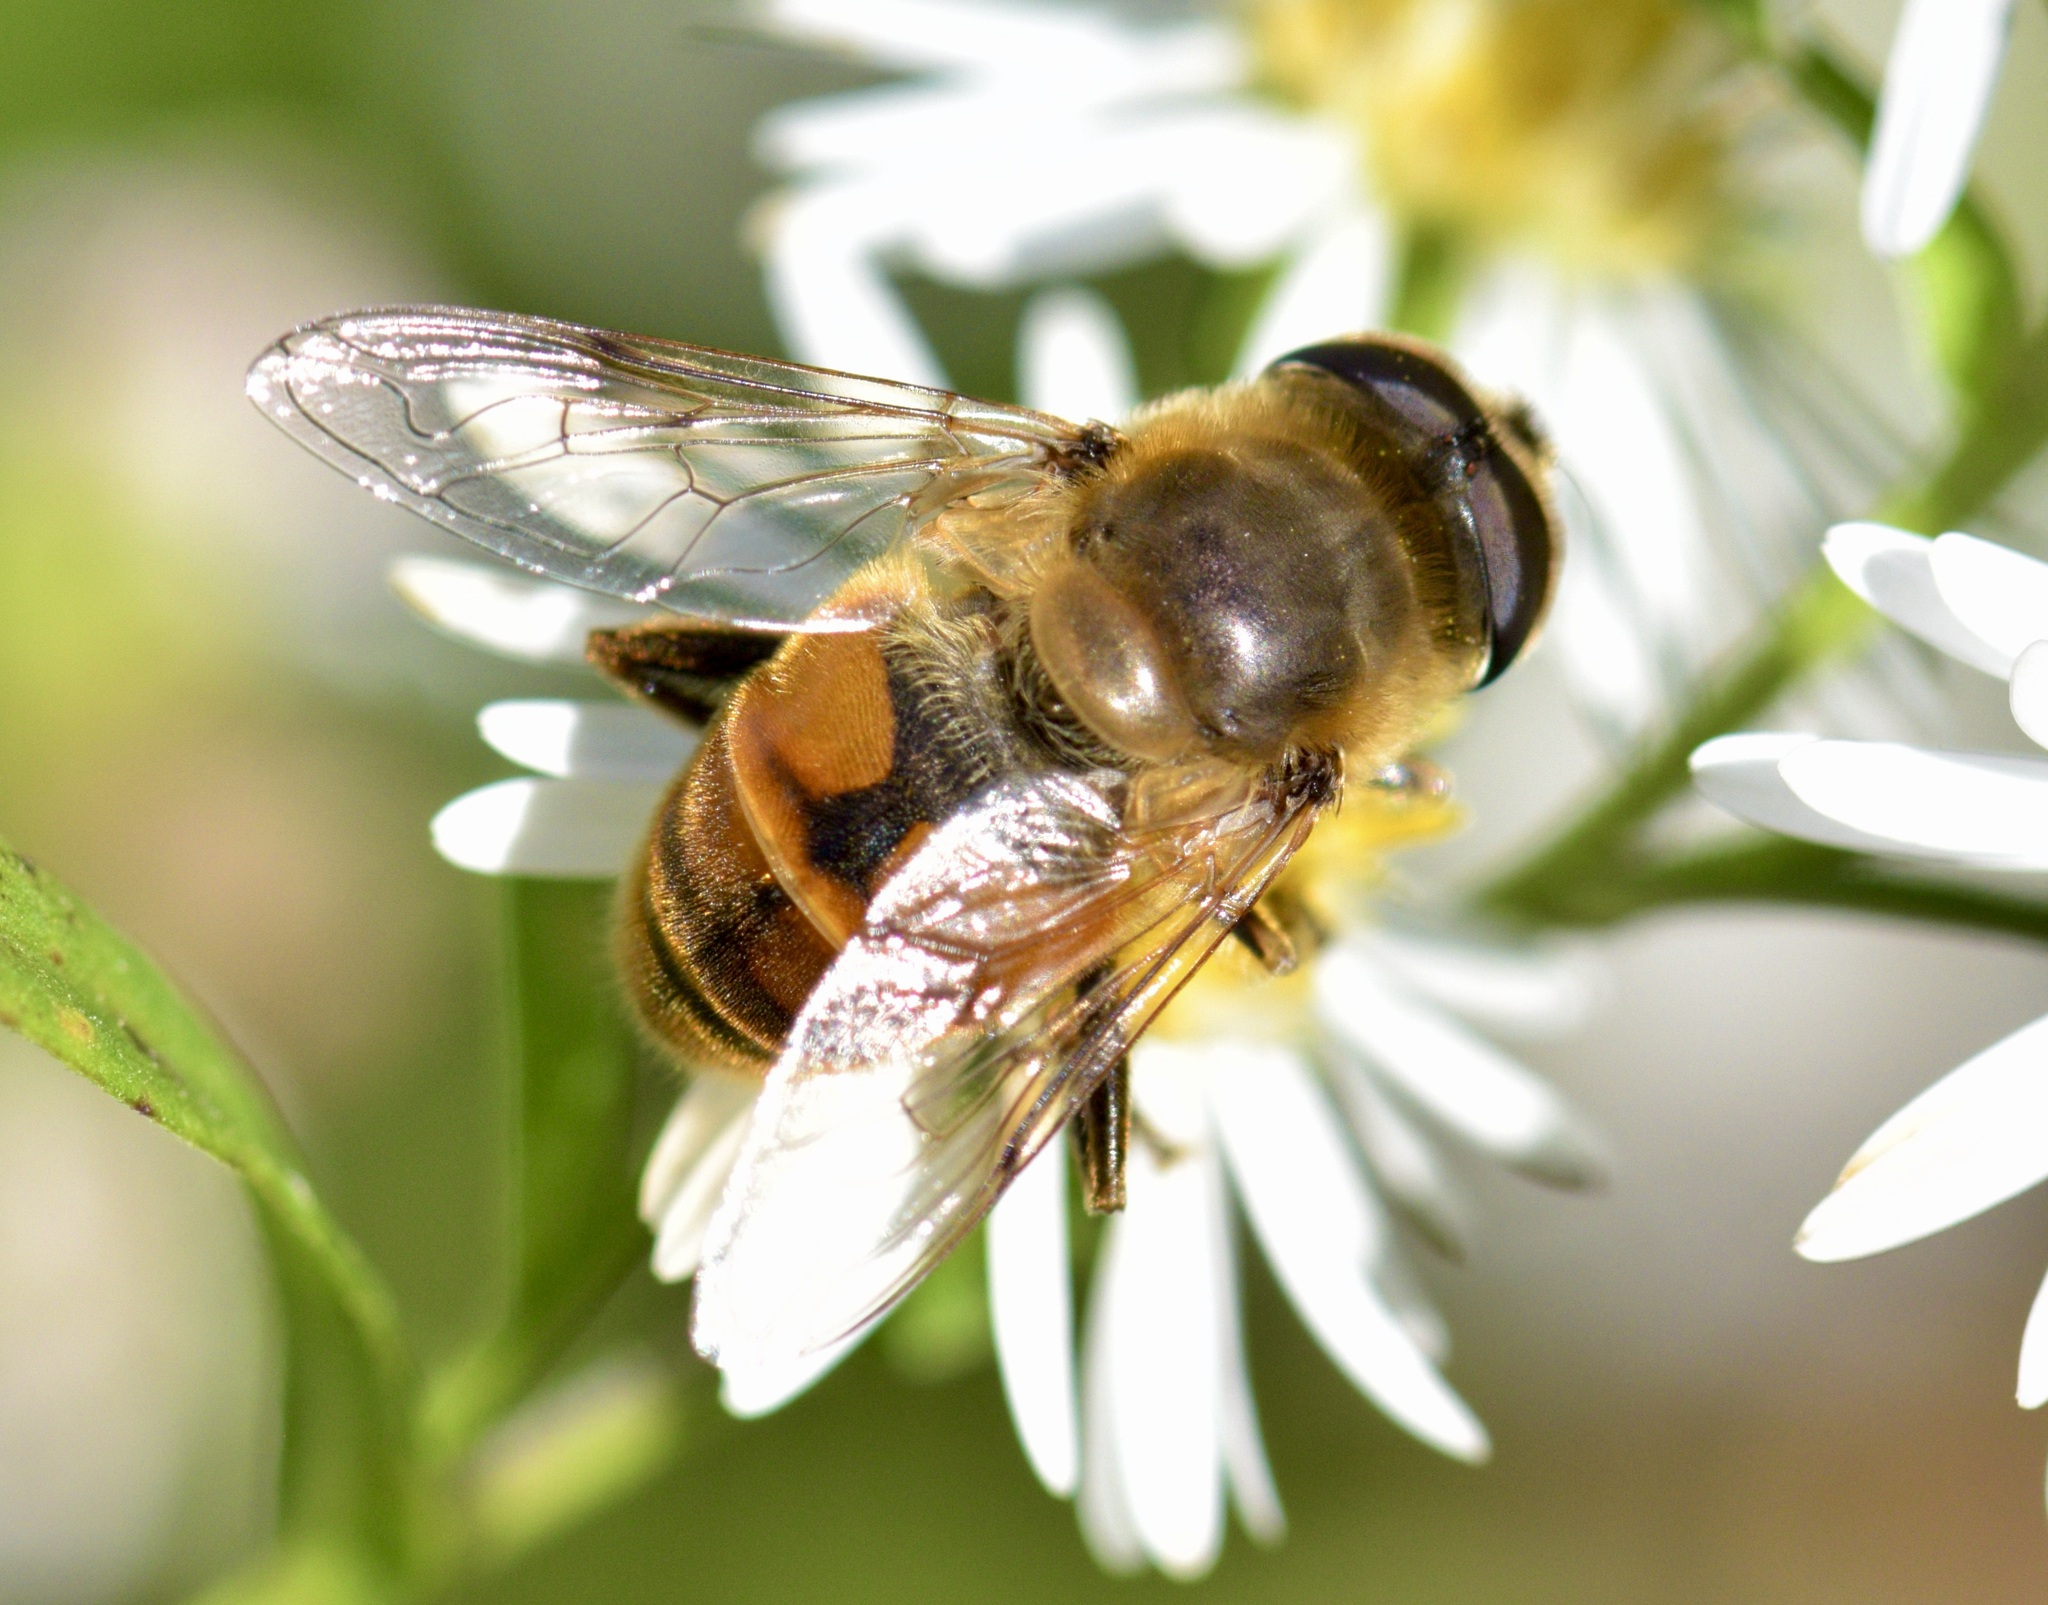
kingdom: Animalia
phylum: Arthropoda
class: Insecta
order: Diptera
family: Syrphidae
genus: Eristalis
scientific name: Eristalis tenax
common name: Drone fly
